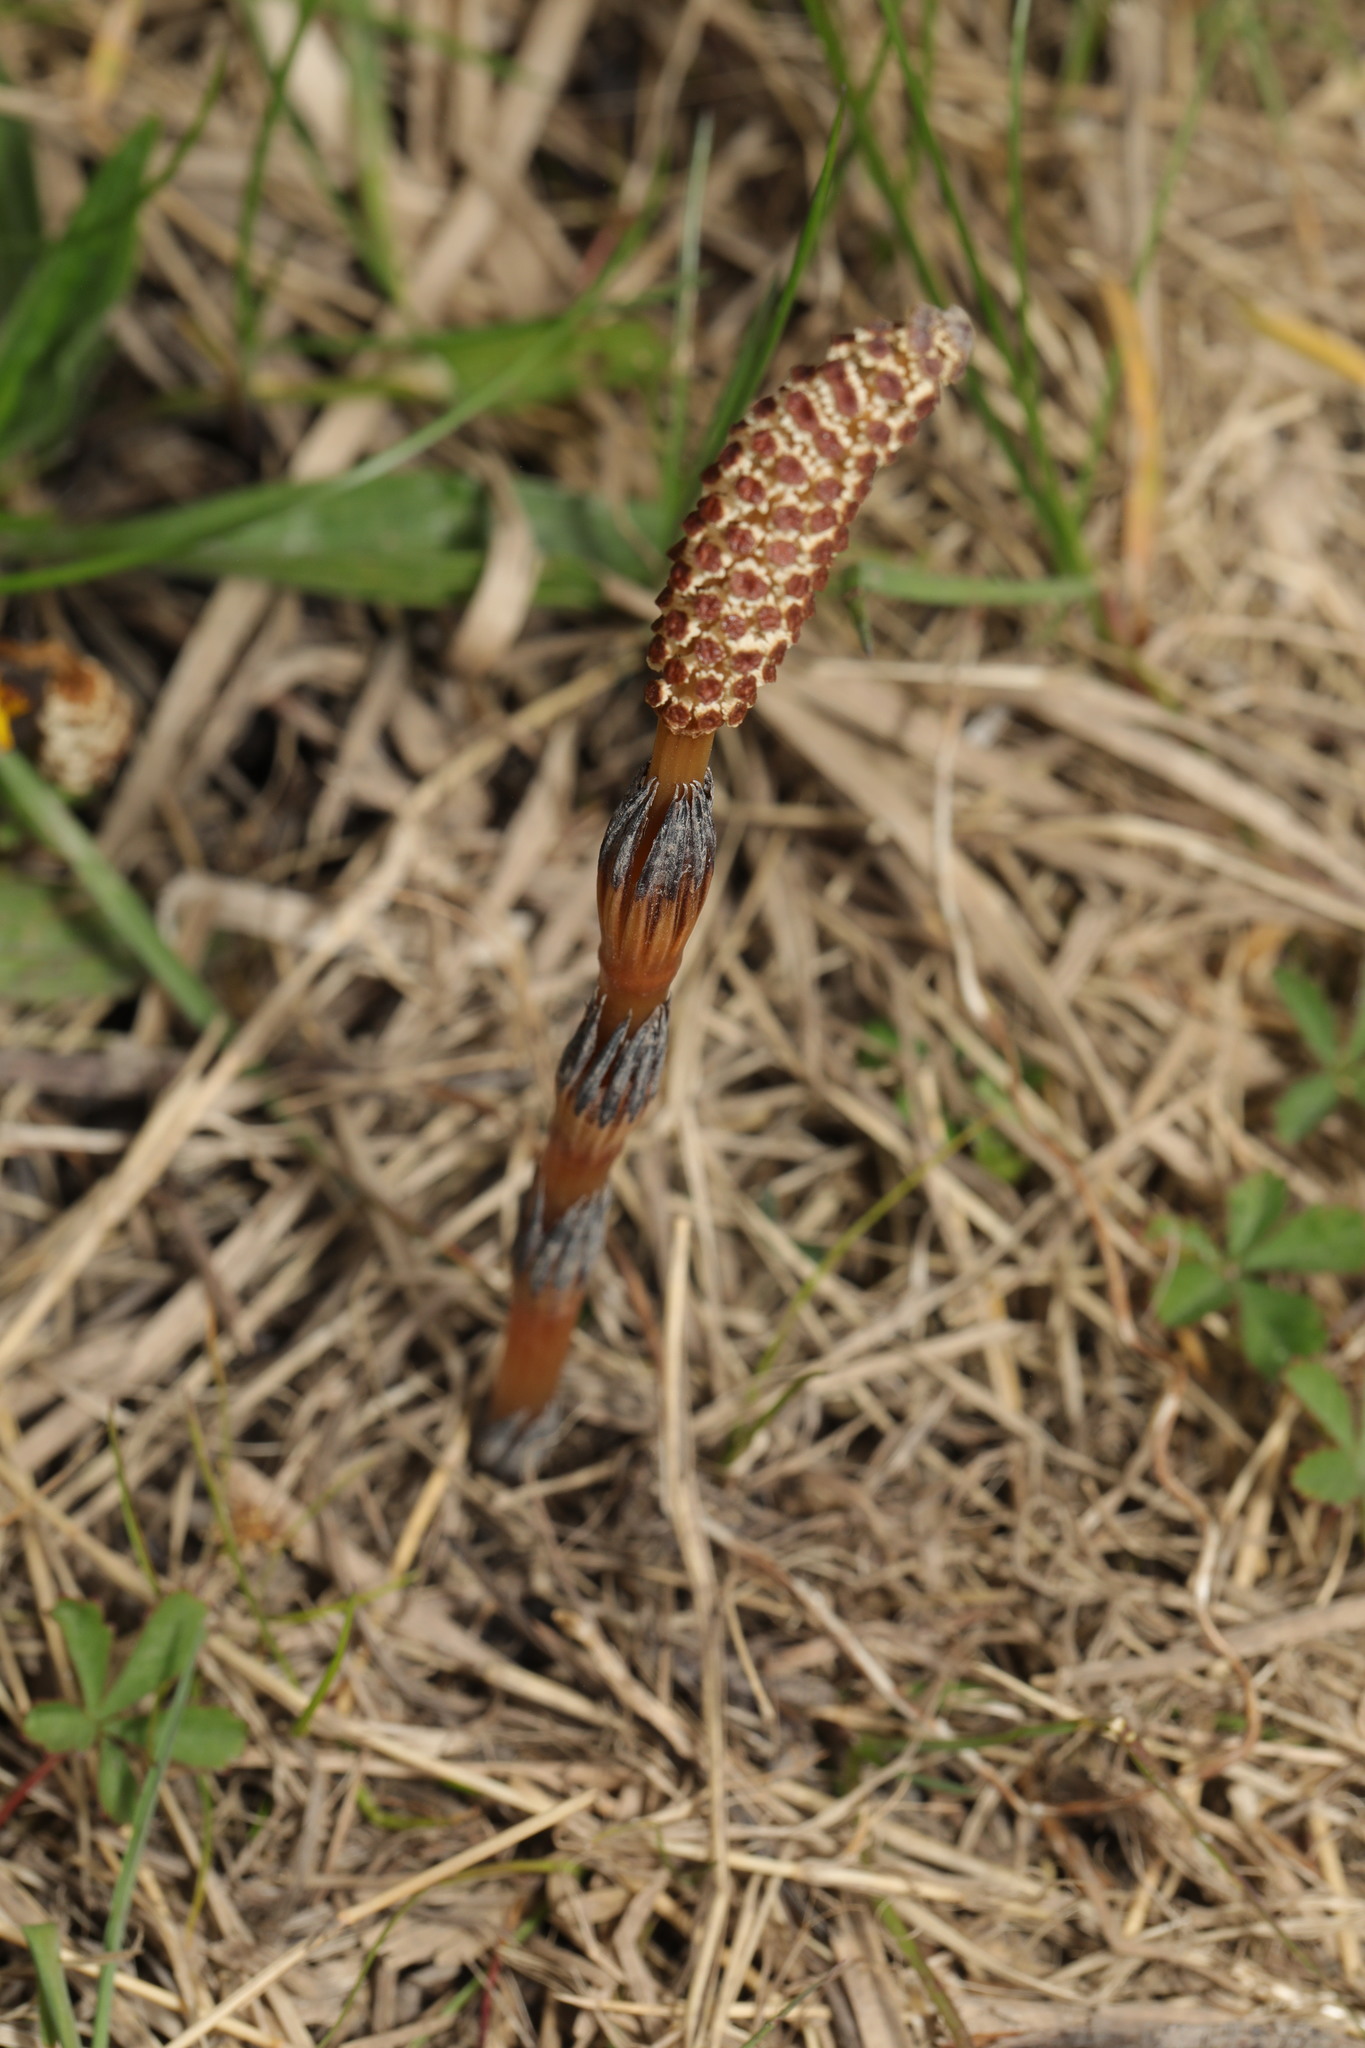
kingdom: Plantae
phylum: Tracheophyta
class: Polypodiopsida
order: Equisetales
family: Equisetaceae
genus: Equisetum
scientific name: Equisetum arvense
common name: Field horsetail
